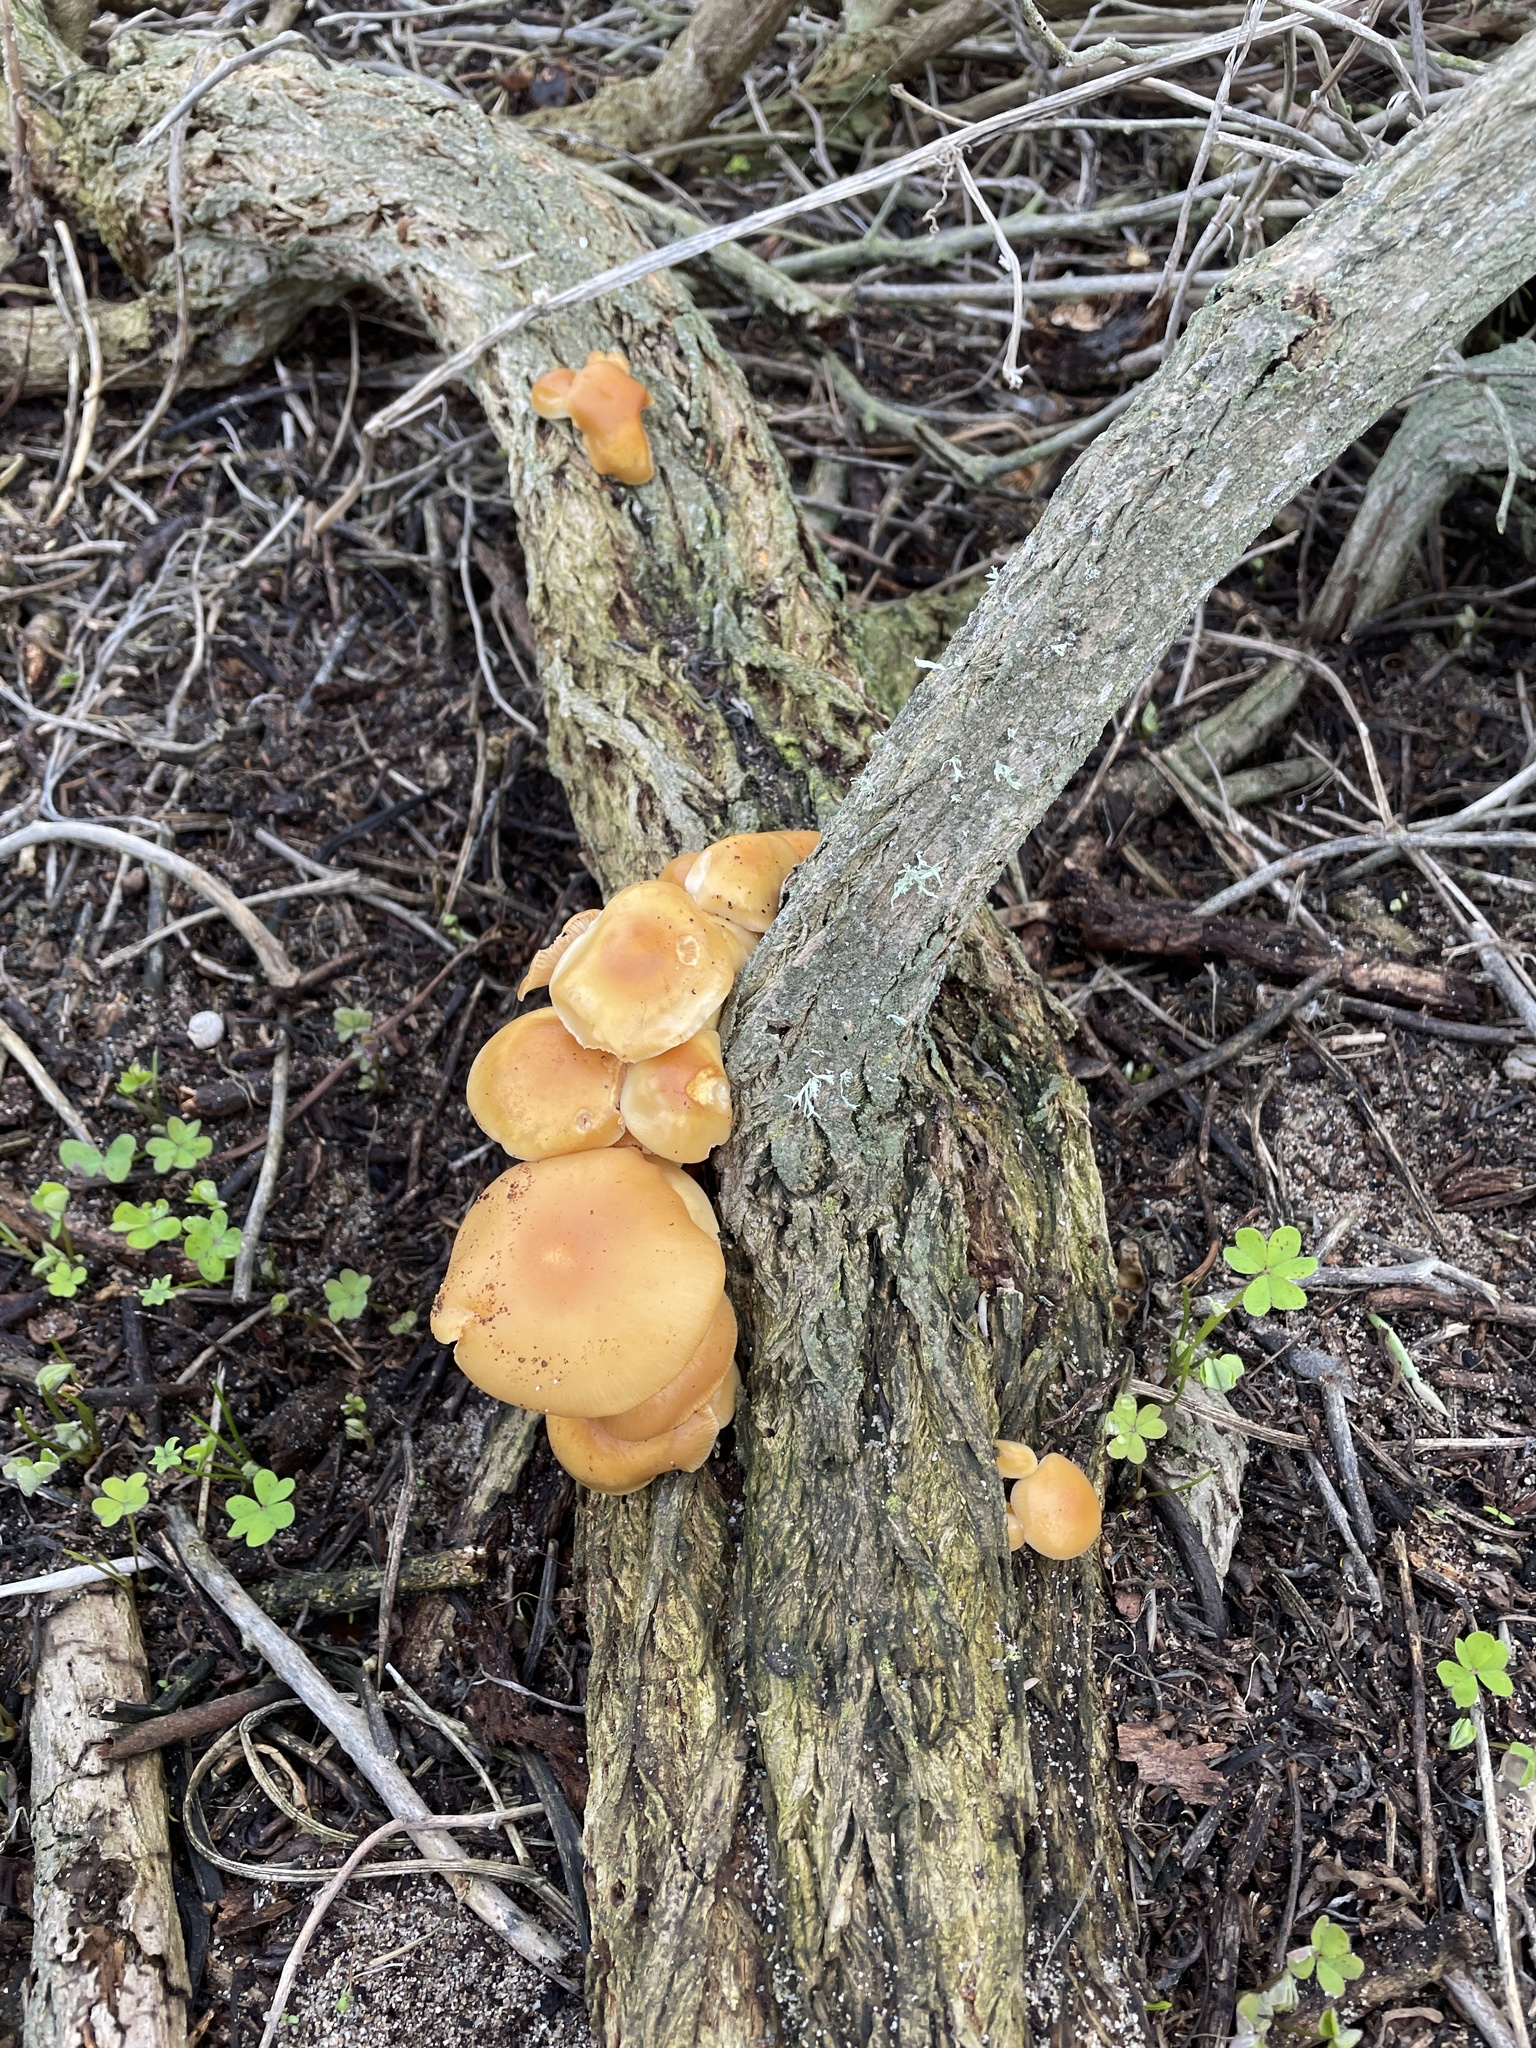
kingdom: Fungi
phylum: Basidiomycota
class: Agaricomycetes
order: Agaricales
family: Physalacriaceae
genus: Flammulina
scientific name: Flammulina lupinicola
